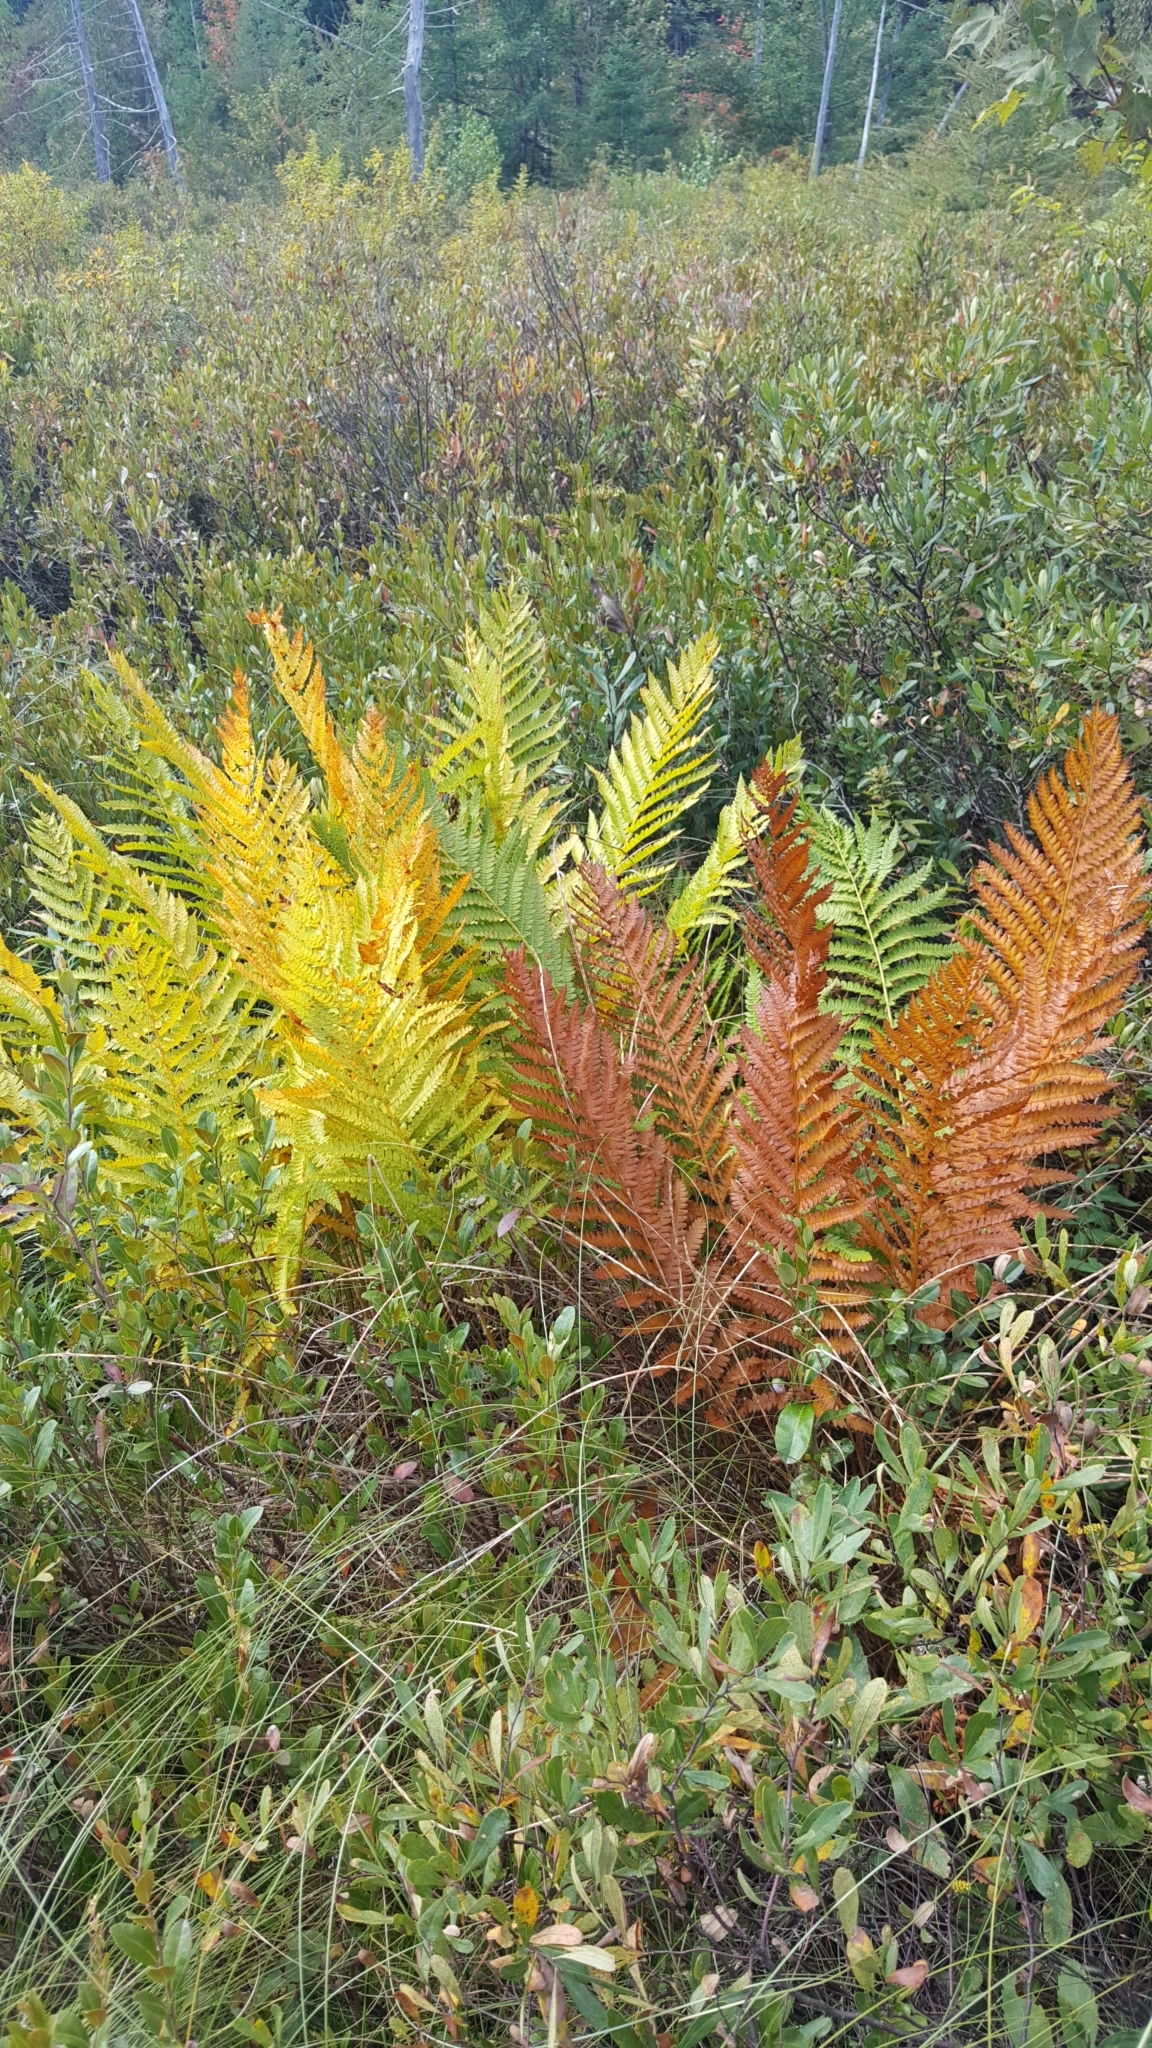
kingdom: Plantae
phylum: Tracheophyta
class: Polypodiopsida
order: Osmundales
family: Osmundaceae
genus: Osmundastrum
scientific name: Osmundastrum cinnamomeum
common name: Cinnamon fern
